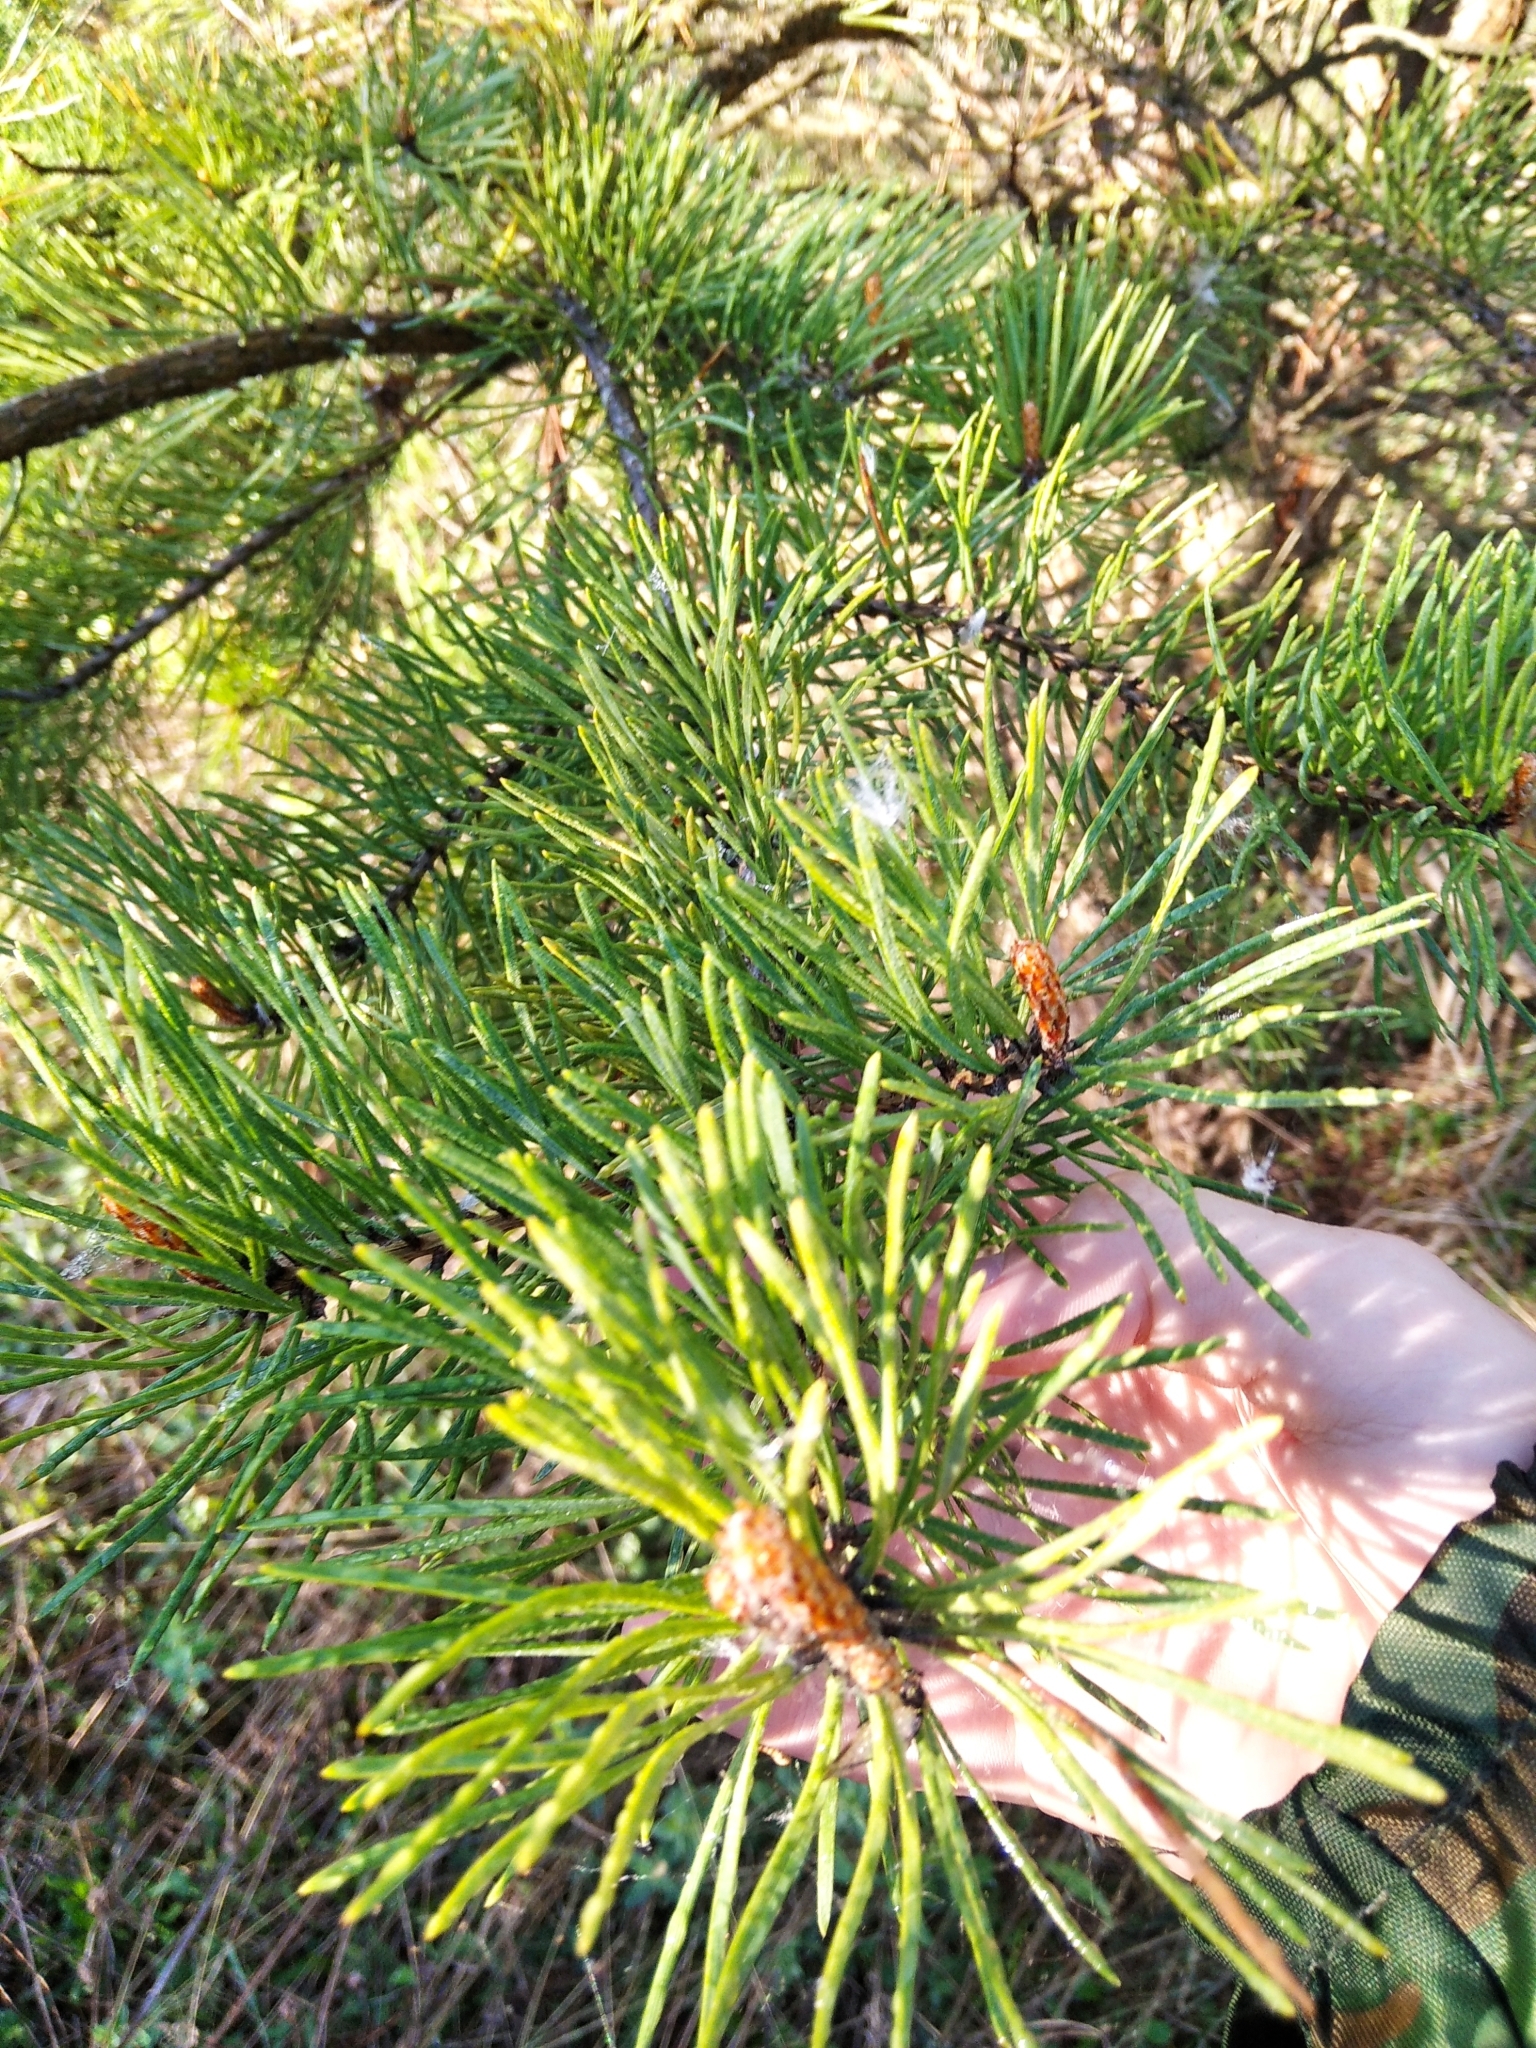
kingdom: Plantae
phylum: Tracheophyta
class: Pinopsida
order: Pinales
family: Pinaceae
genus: Pinus
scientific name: Pinus sylvestris
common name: Scots pine
